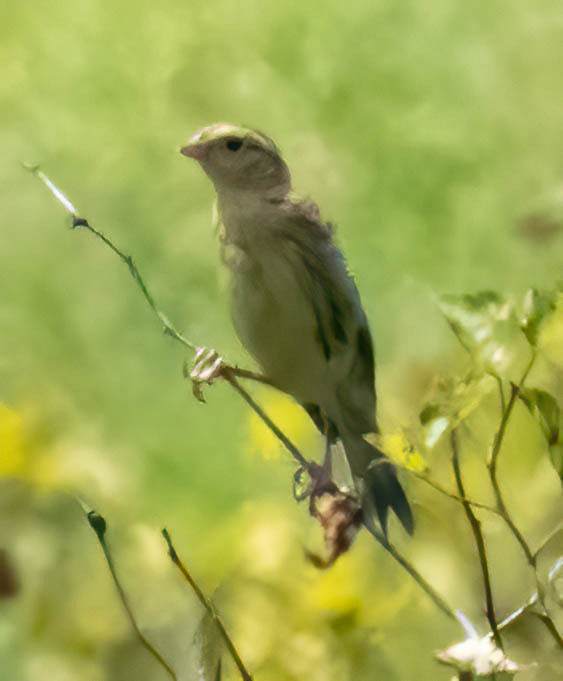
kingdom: Animalia
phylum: Chordata
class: Aves
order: Passeriformes
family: Icteridae
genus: Dolichonyx
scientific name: Dolichonyx oryzivorus
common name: Bobolink
